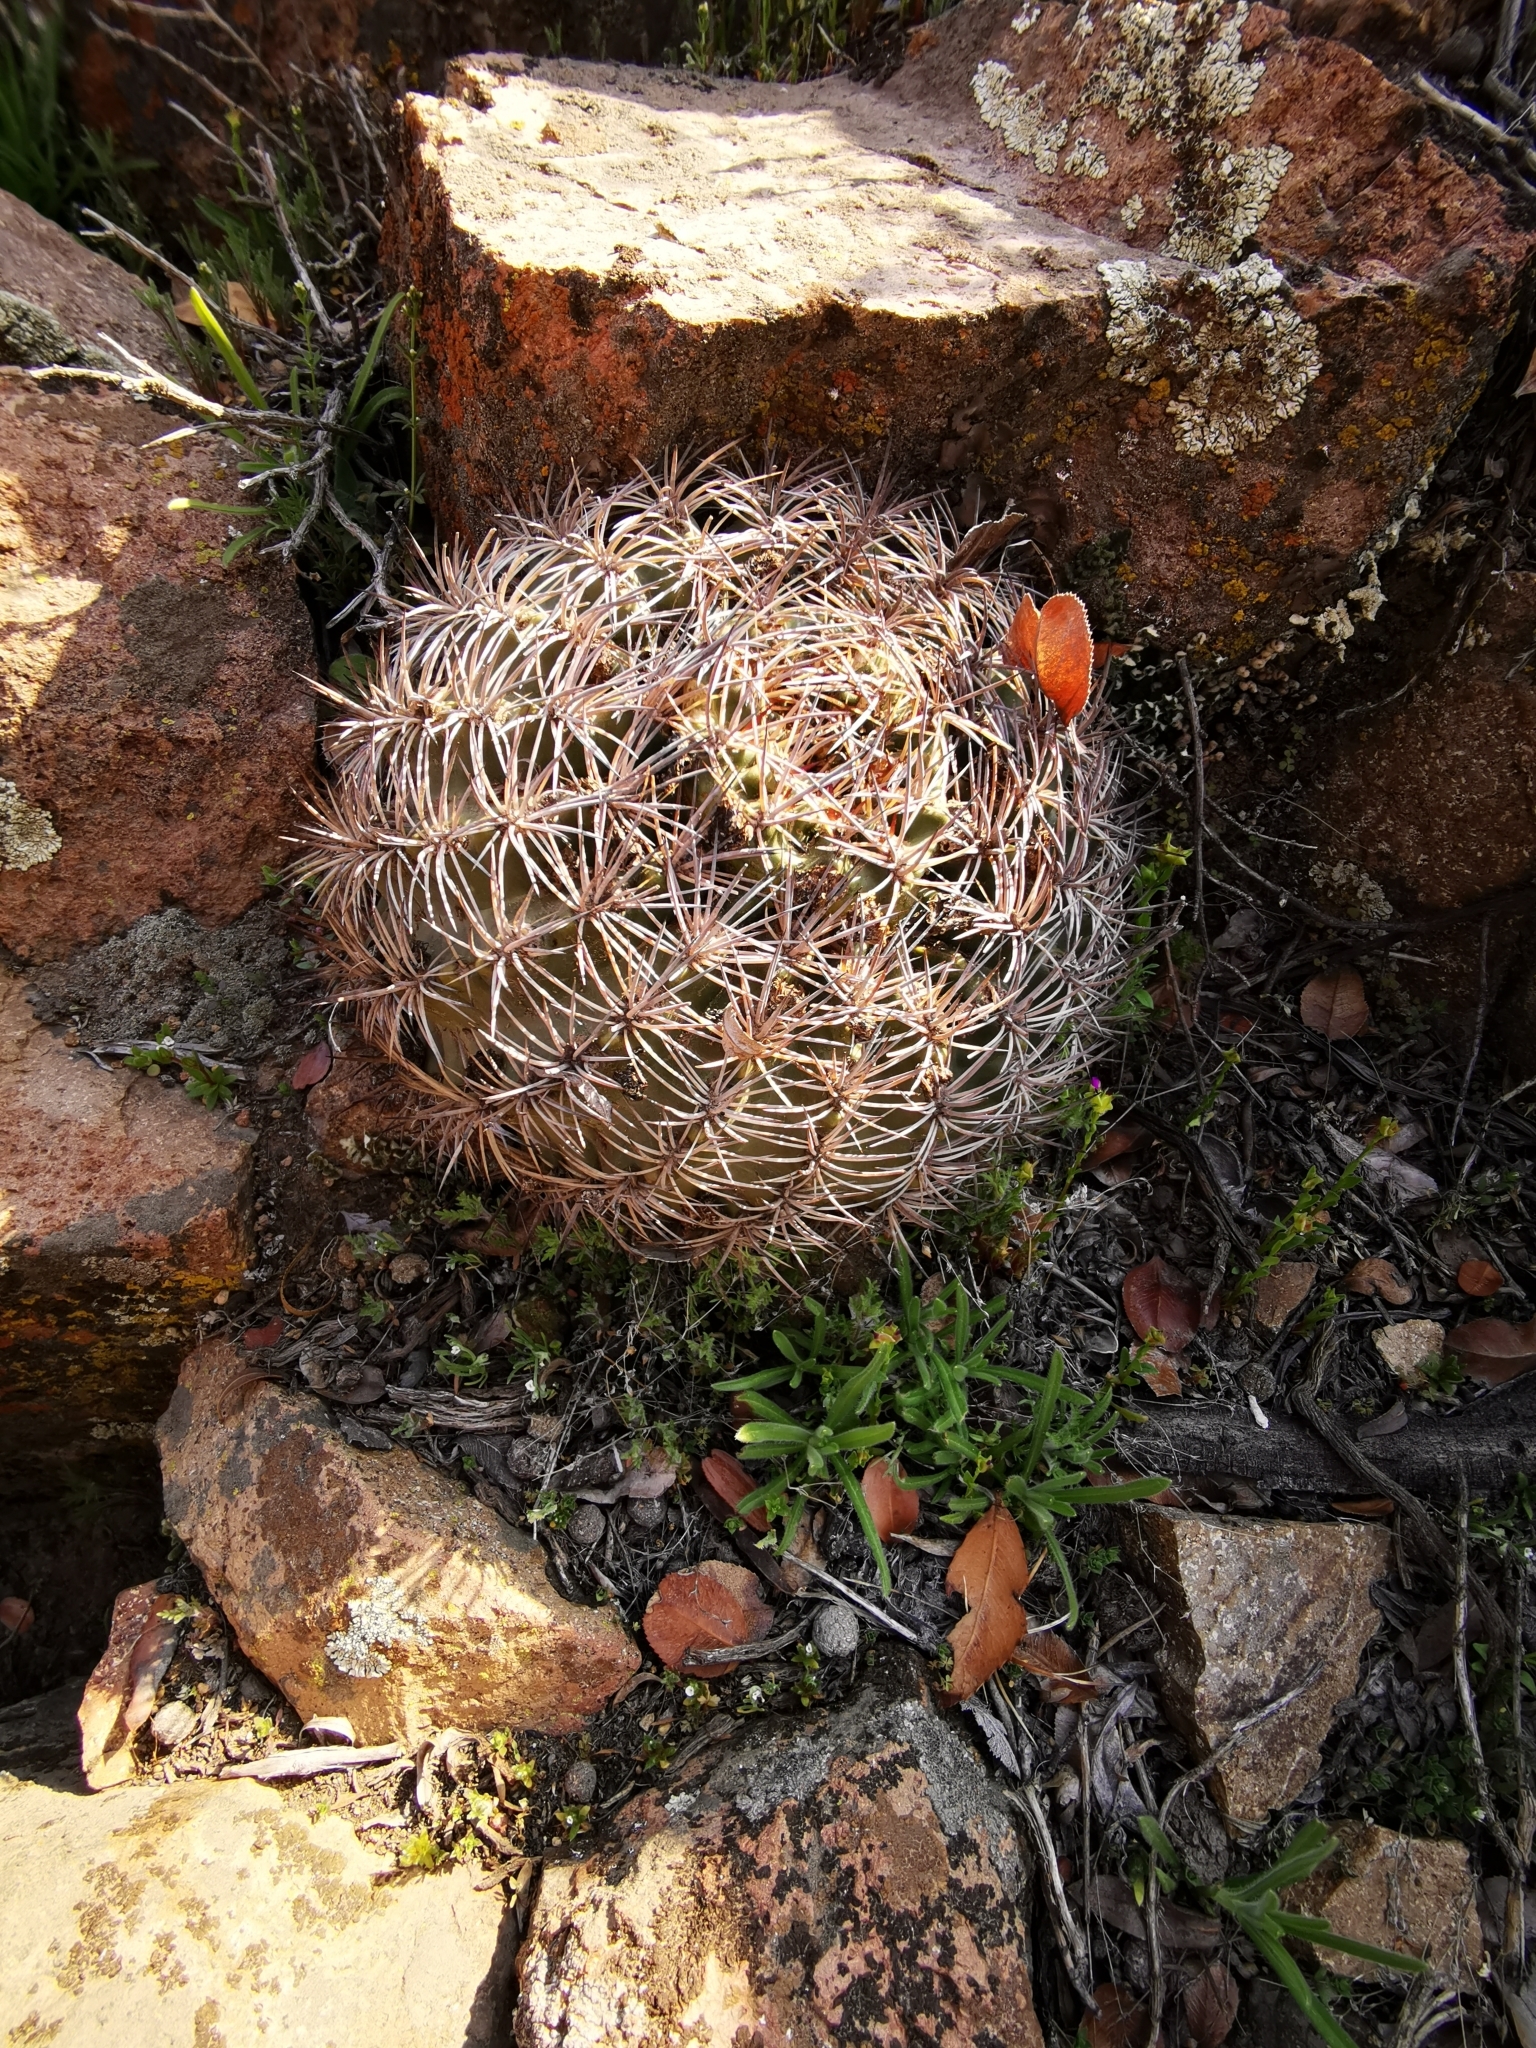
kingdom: Plantae
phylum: Tracheophyta
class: Magnoliopsida
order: Caryophyllales
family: Cactaceae
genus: Eriosyce
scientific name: Eriosyce curvispina
